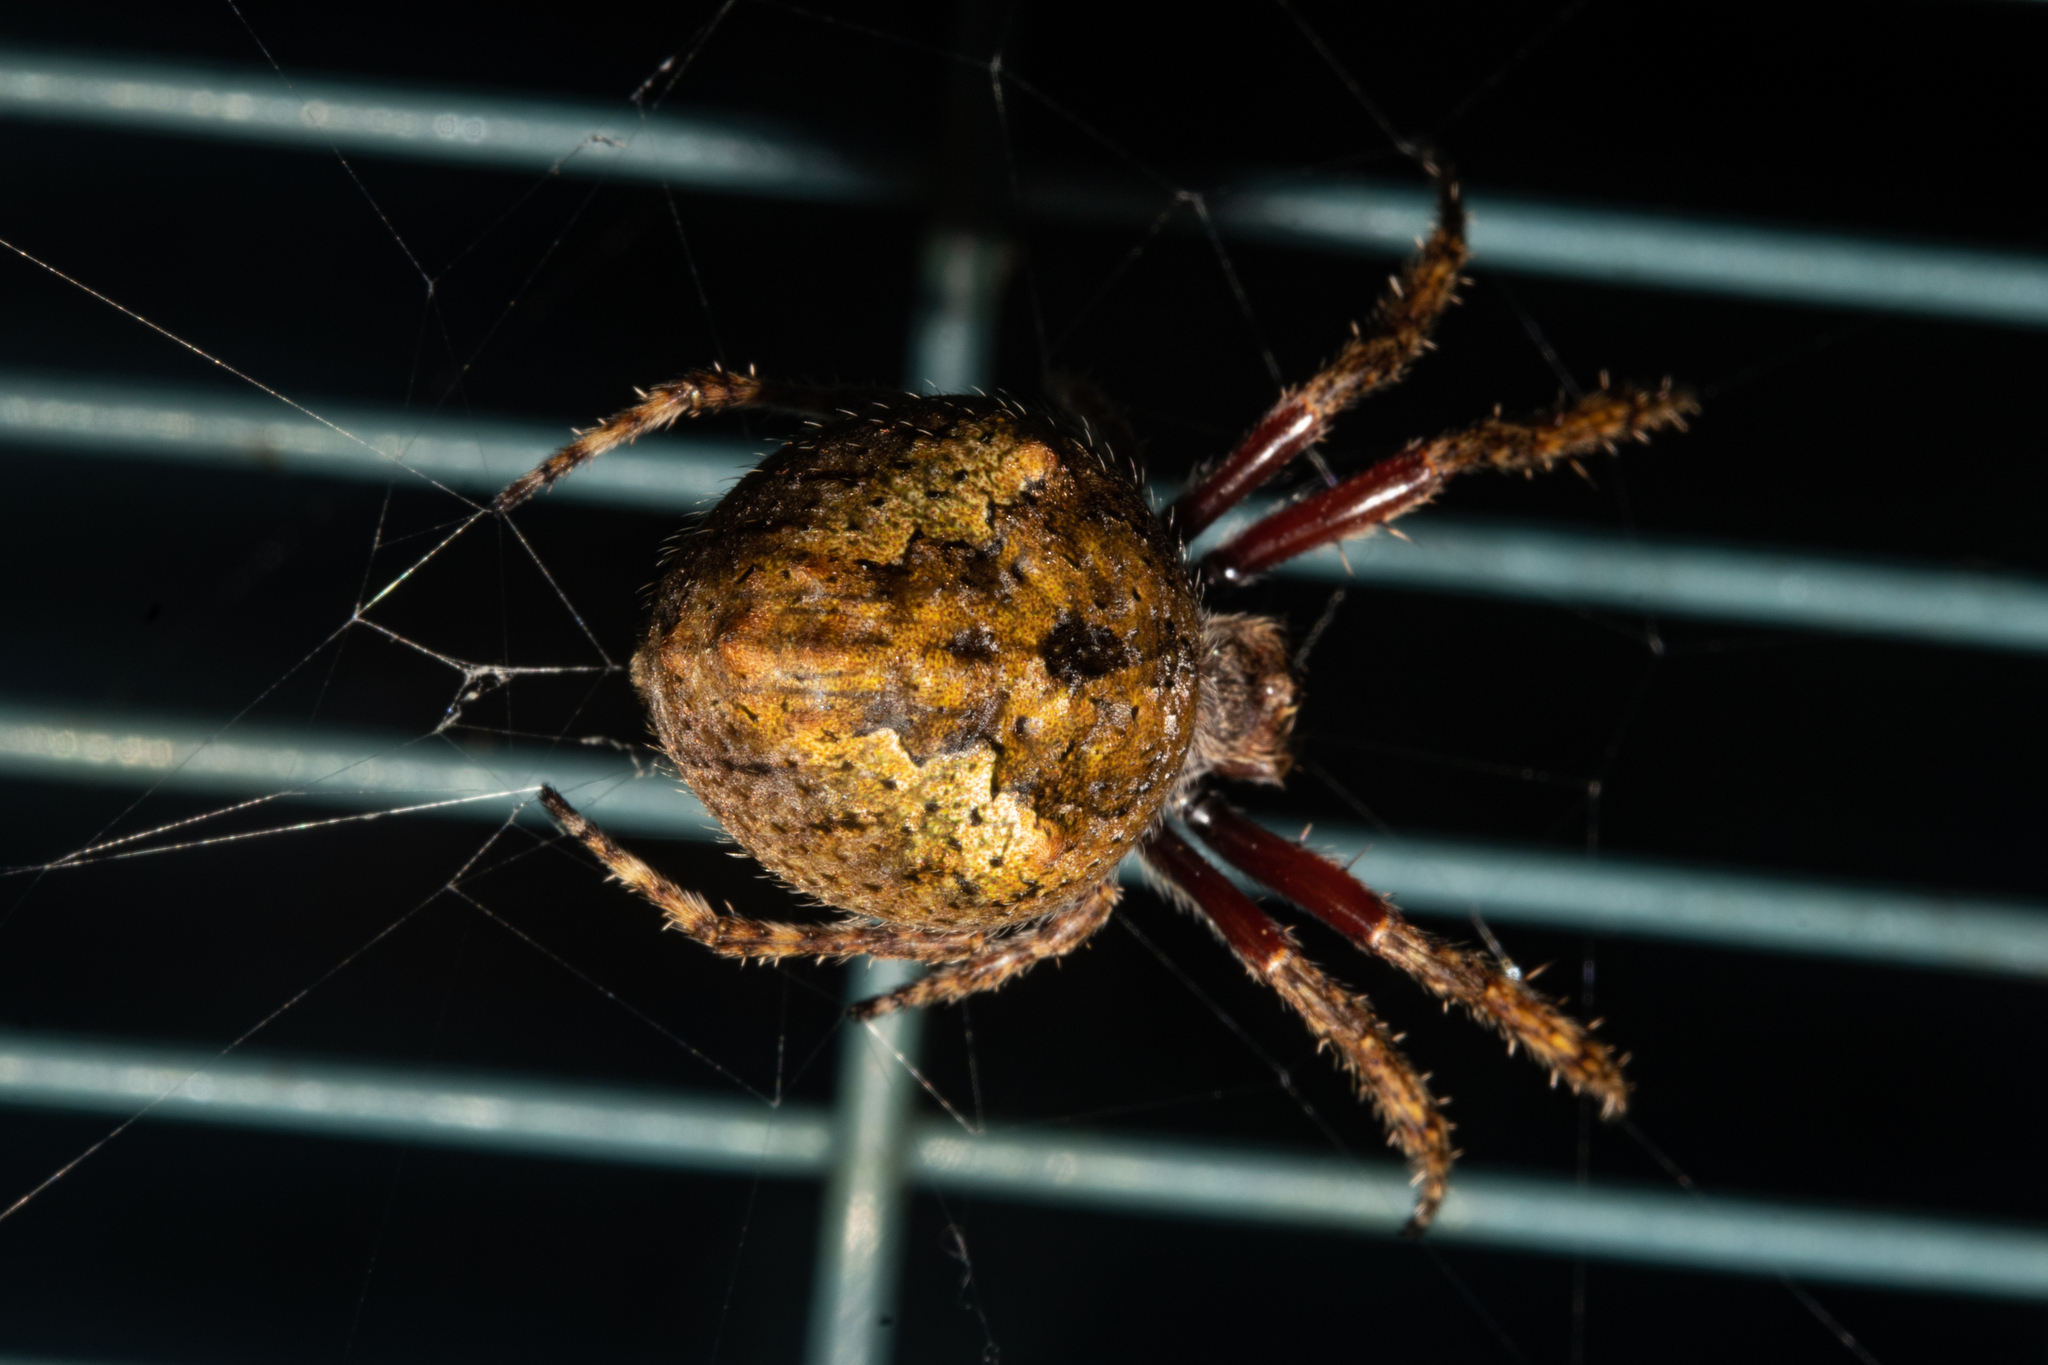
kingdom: Animalia
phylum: Arthropoda
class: Arachnida
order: Araneae
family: Araneidae
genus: Eriophora
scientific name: Eriophora pustulosa
